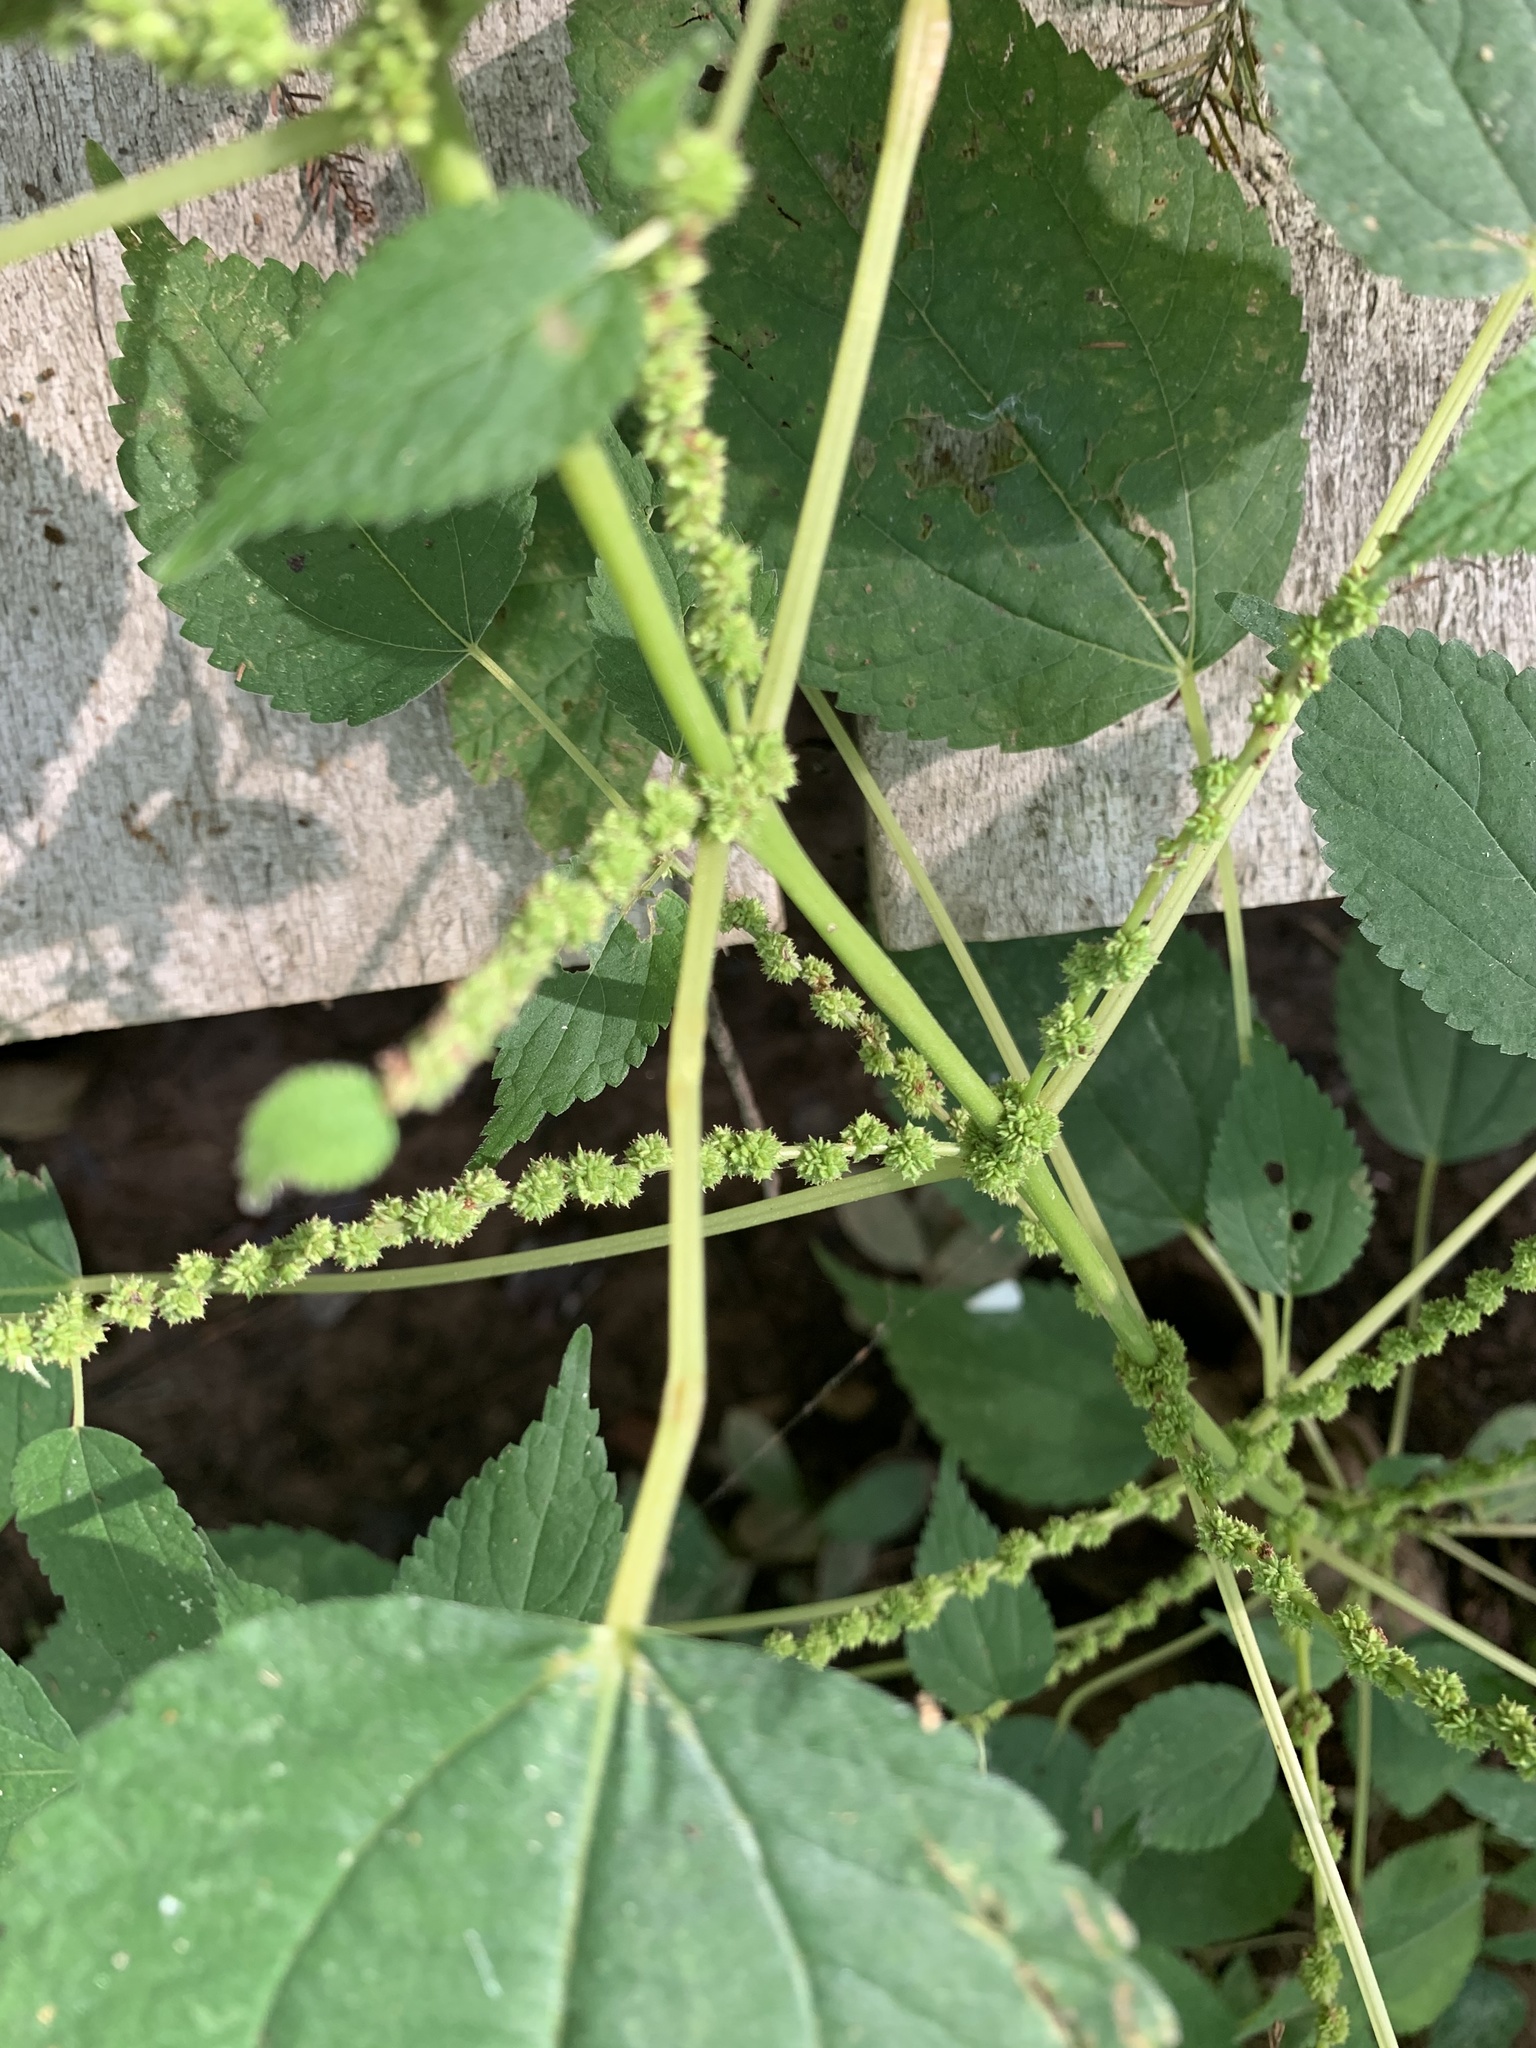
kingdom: Plantae
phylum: Tracheophyta
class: Magnoliopsida
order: Rosales
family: Urticaceae
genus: Boehmeria
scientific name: Boehmeria cylindrica
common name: Bog-hemp
